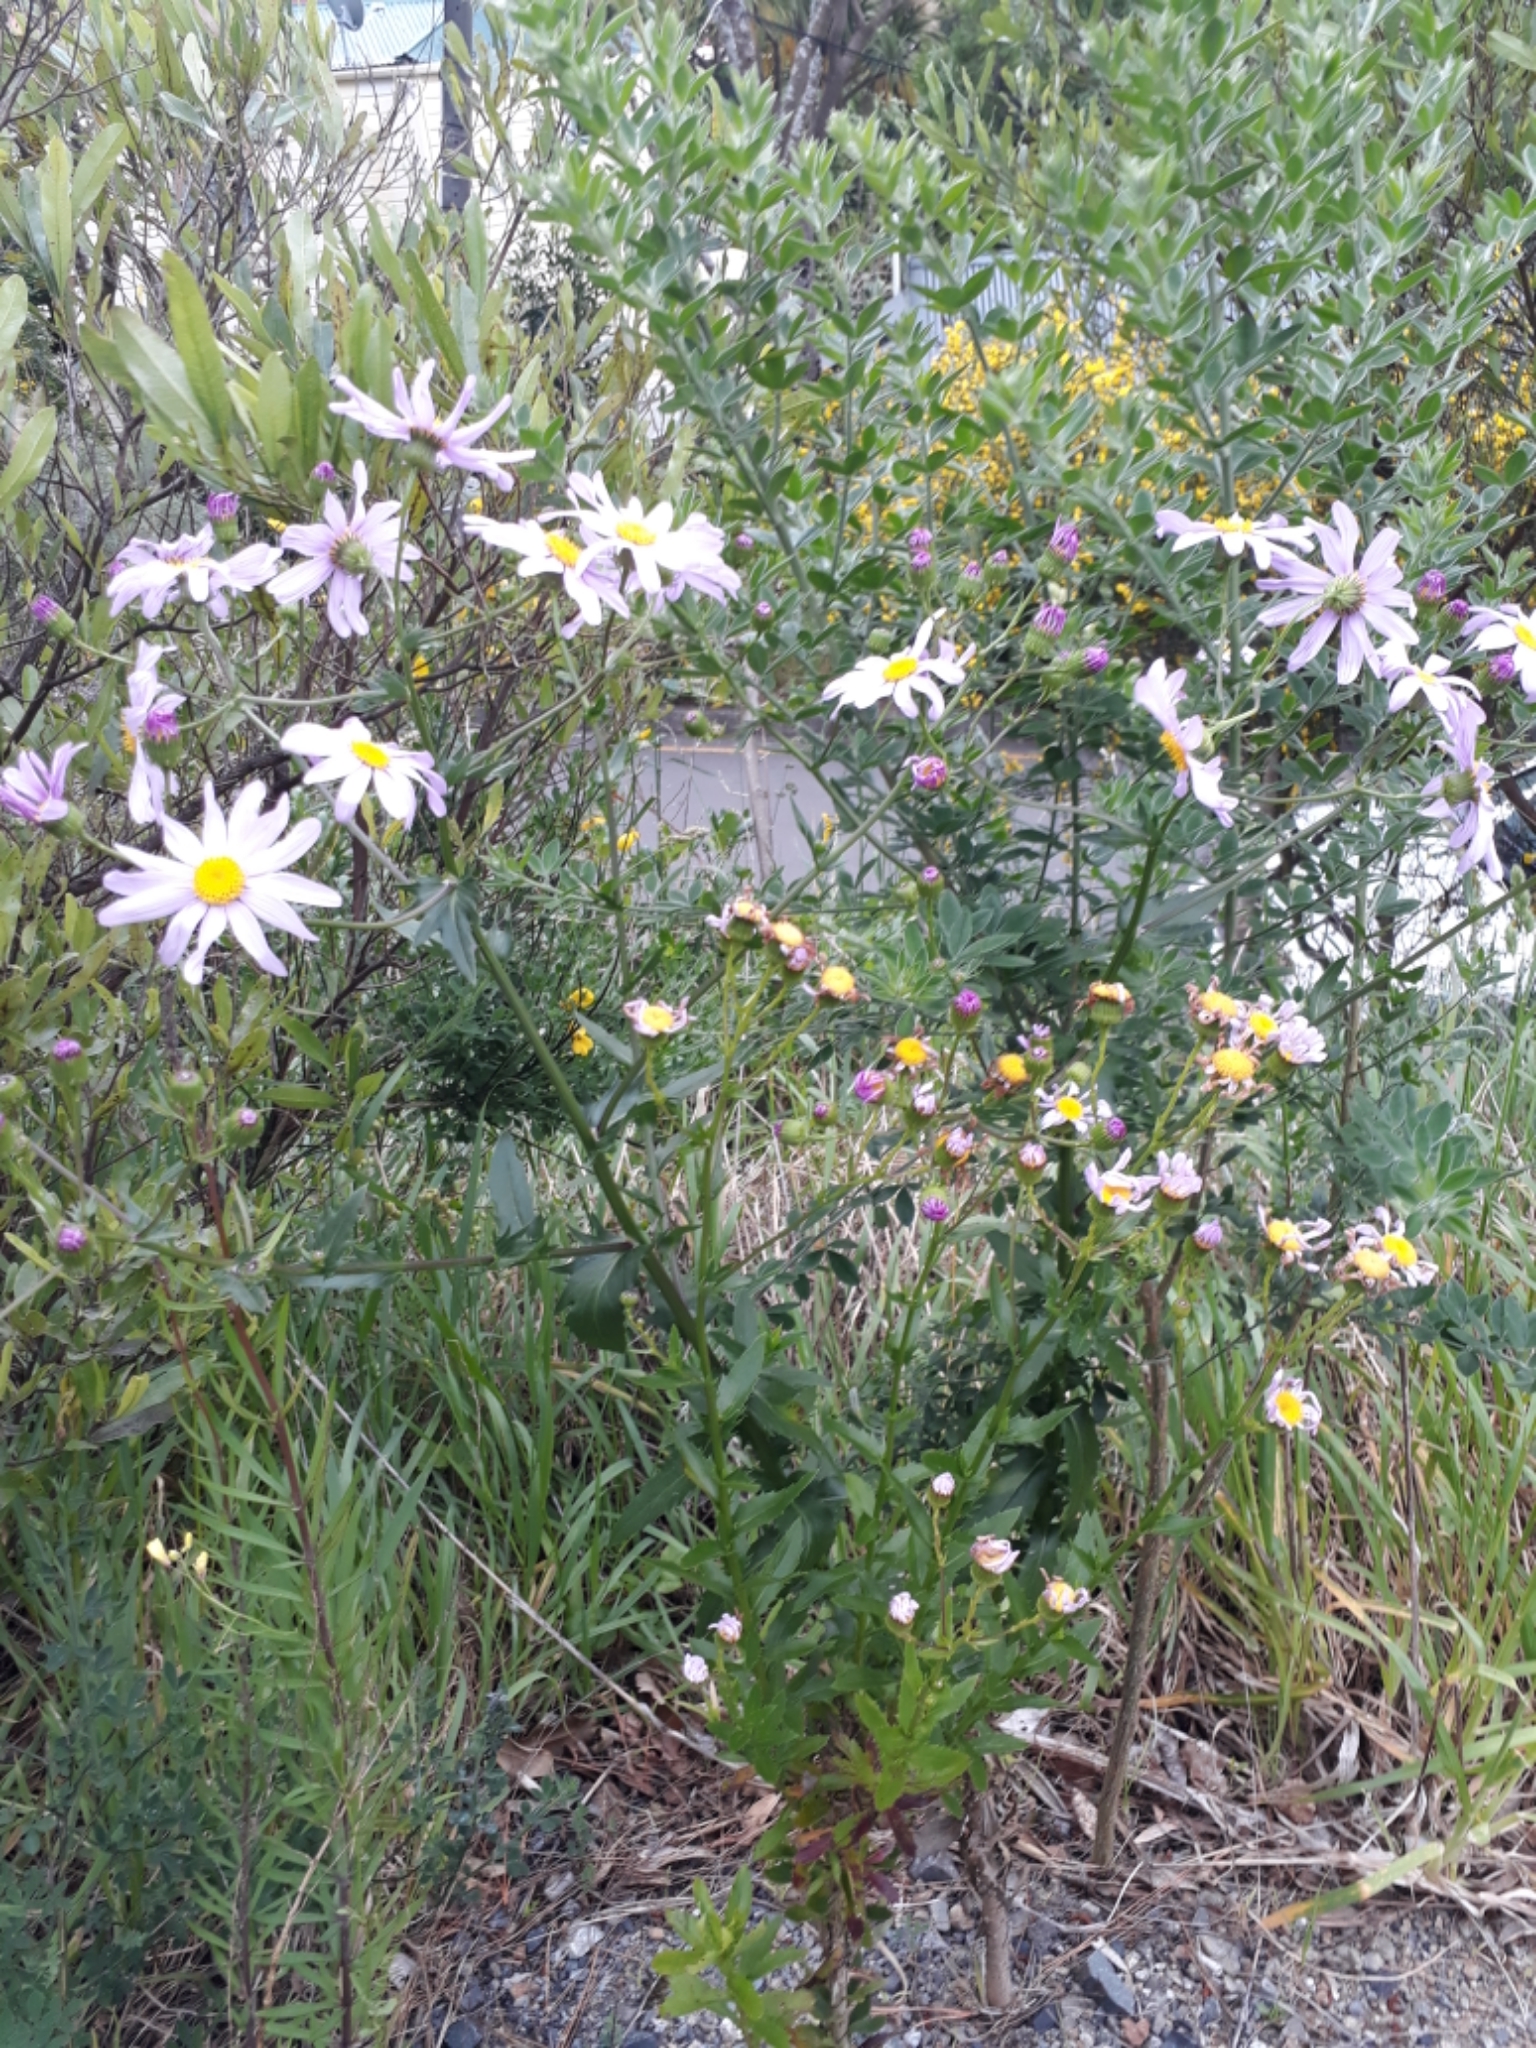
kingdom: Plantae
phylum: Tracheophyta
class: Magnoliopsida
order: Asterales
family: Asteraceae
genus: Senecio
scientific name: Senecio glastifolius
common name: Woad-leaved ragwort
